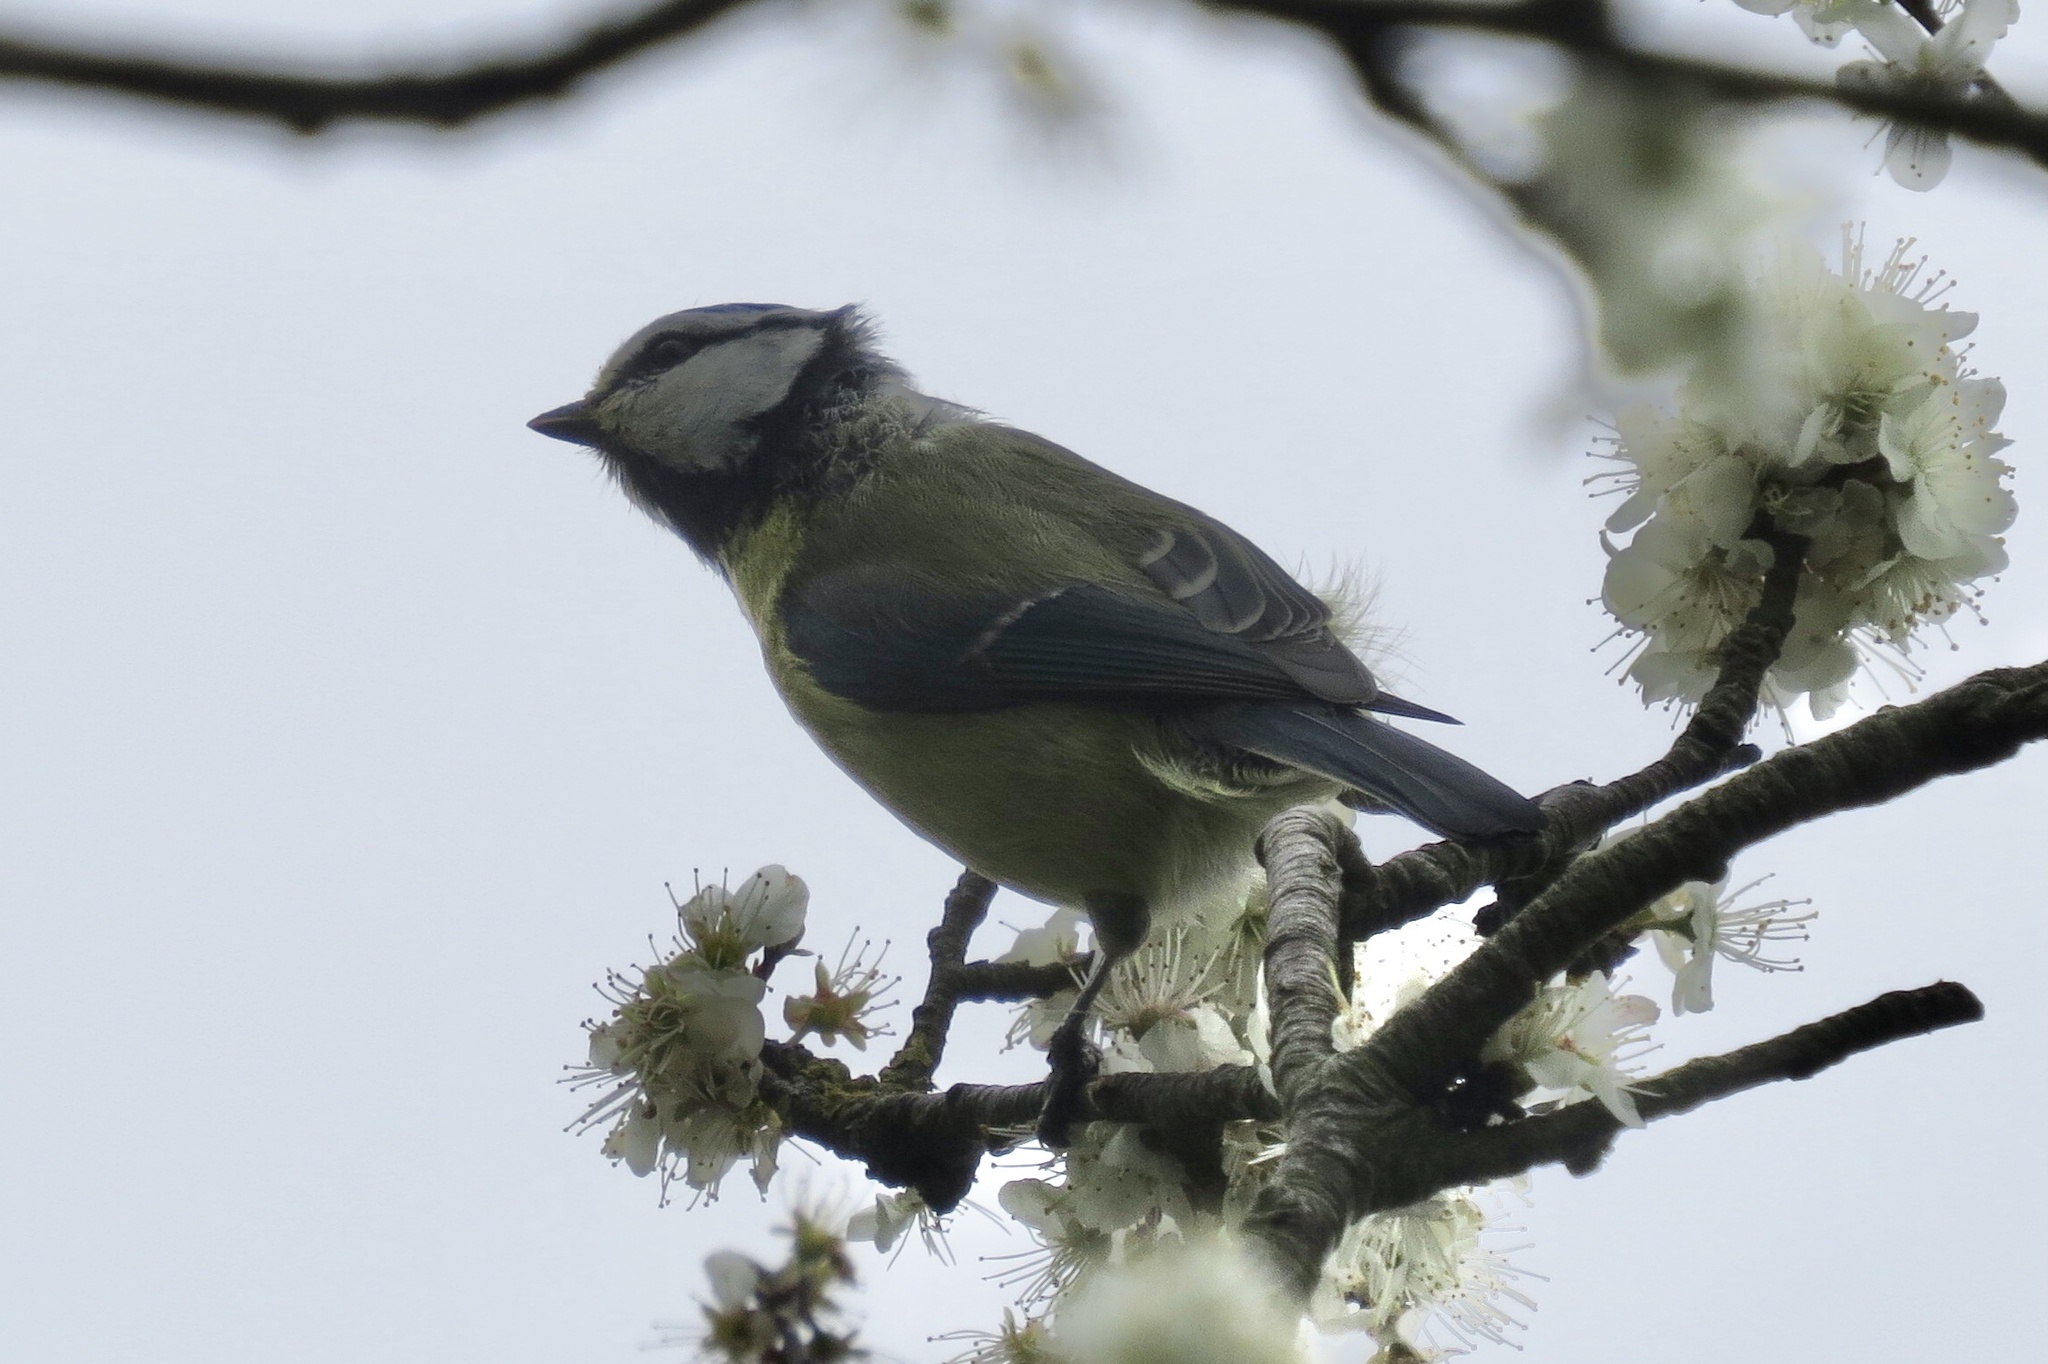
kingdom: Animalia
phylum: Chordata
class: Aves
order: Passeriformes
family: Paridae
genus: Cyanistes
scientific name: Cyanistes caeruleus
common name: Eurasian blue tit
